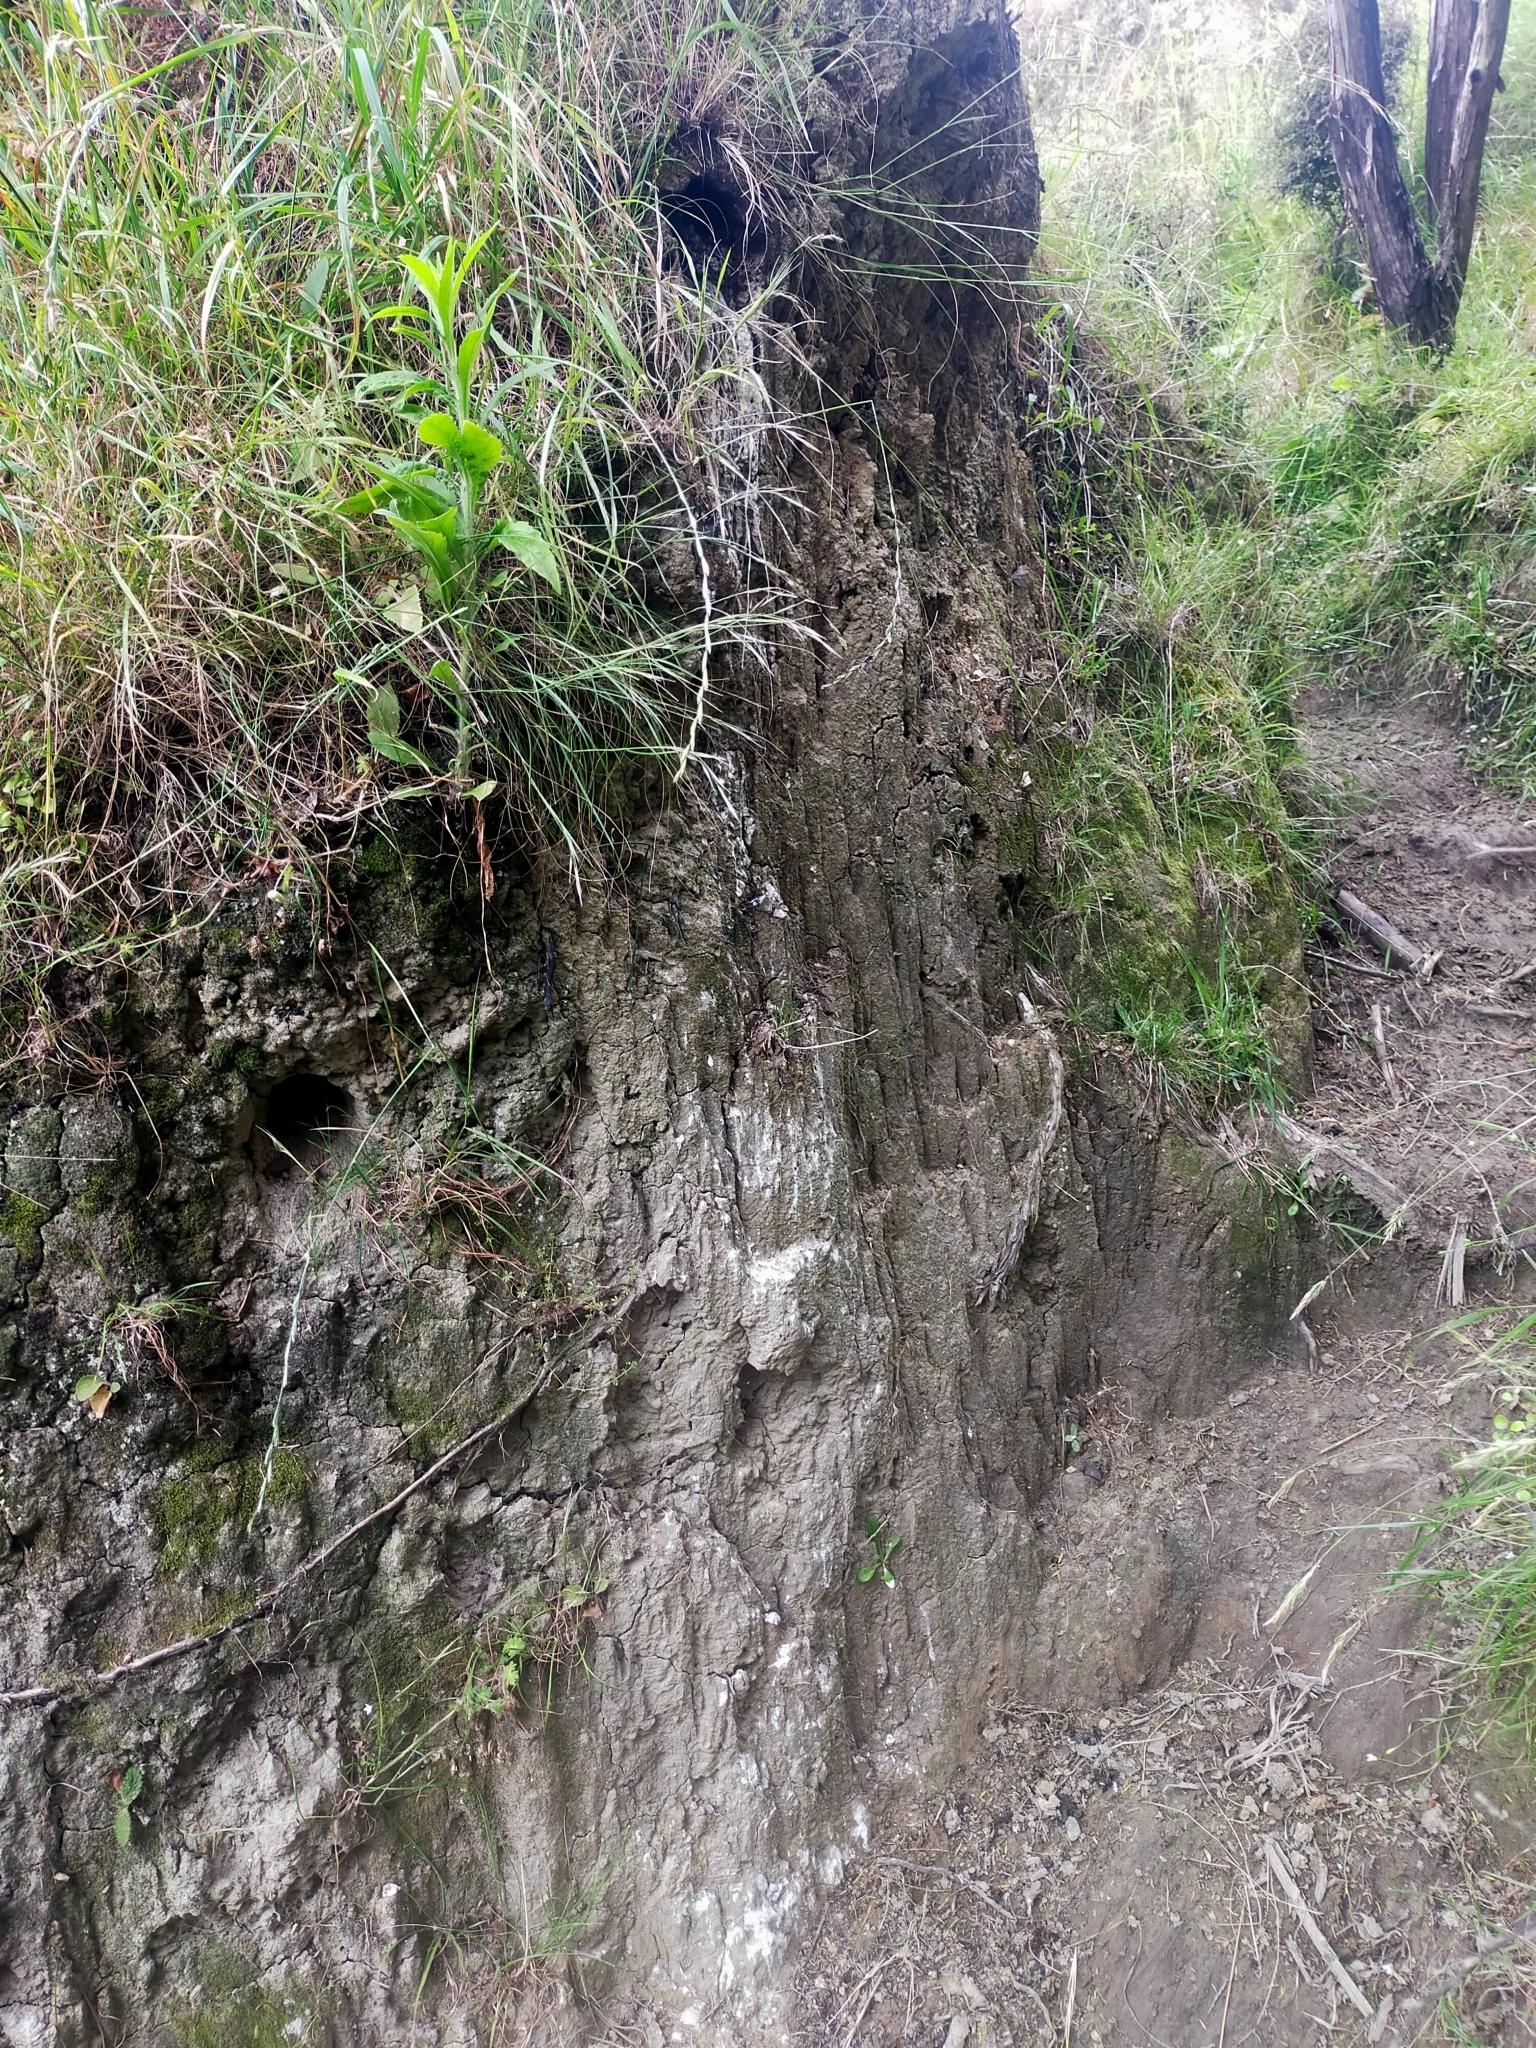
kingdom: Animalia
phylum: Chordata
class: Aves
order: Coraciiformes
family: Alcedinidae
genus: Todiramphus
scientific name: Todiramphus sanctus
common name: Sacred kingfisher
